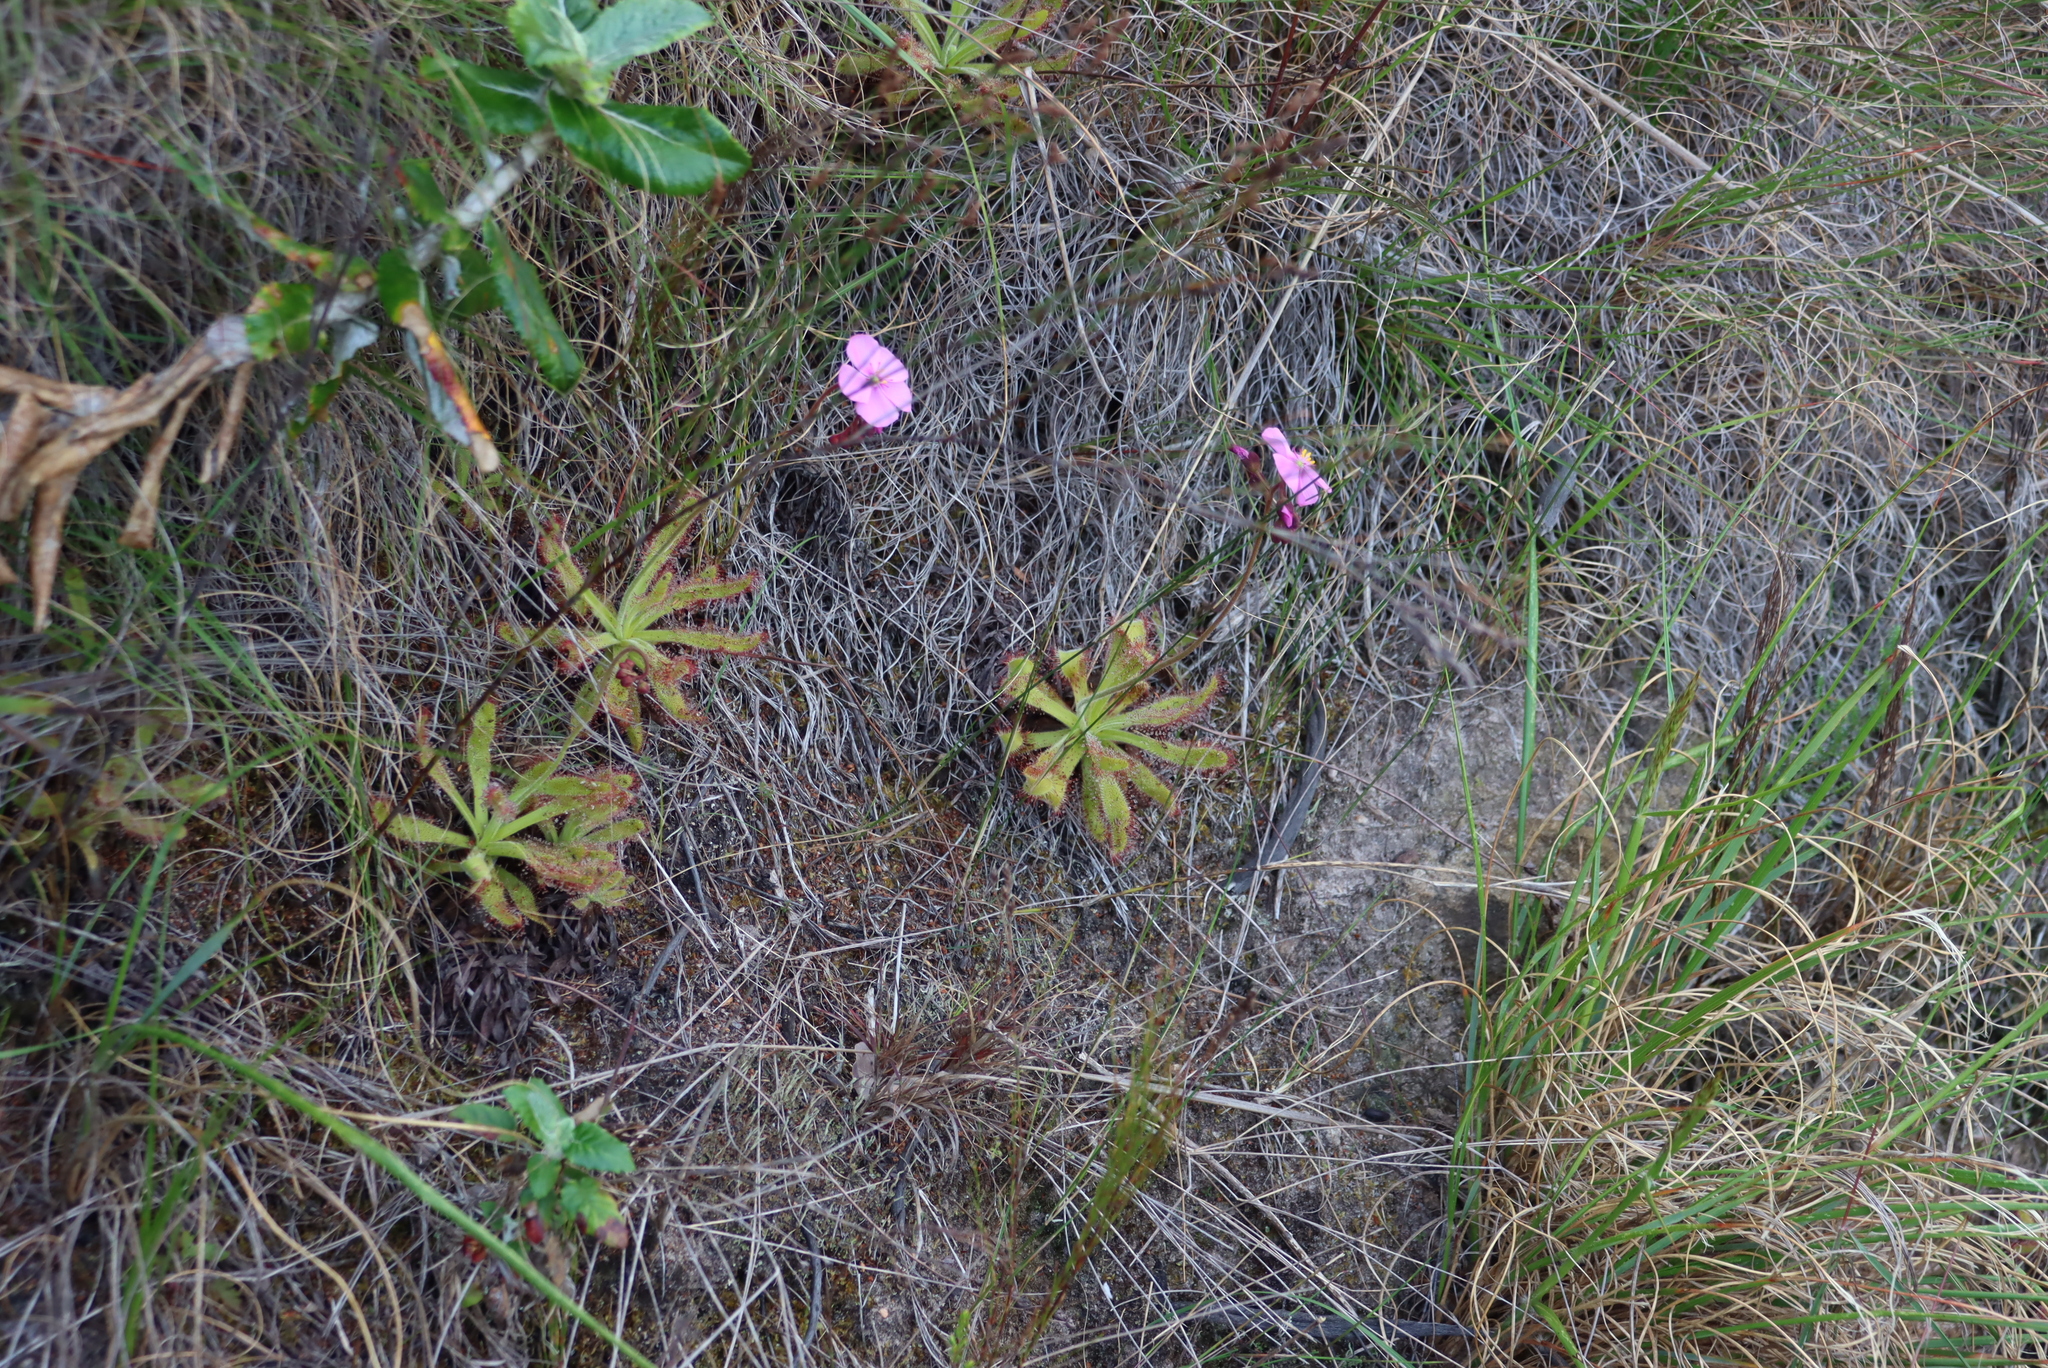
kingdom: Plantae
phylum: Tracheophyta
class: Magnoliopsida
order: Caryophyllales
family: Droseraceae
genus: Drosera
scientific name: Drosera hilaris
